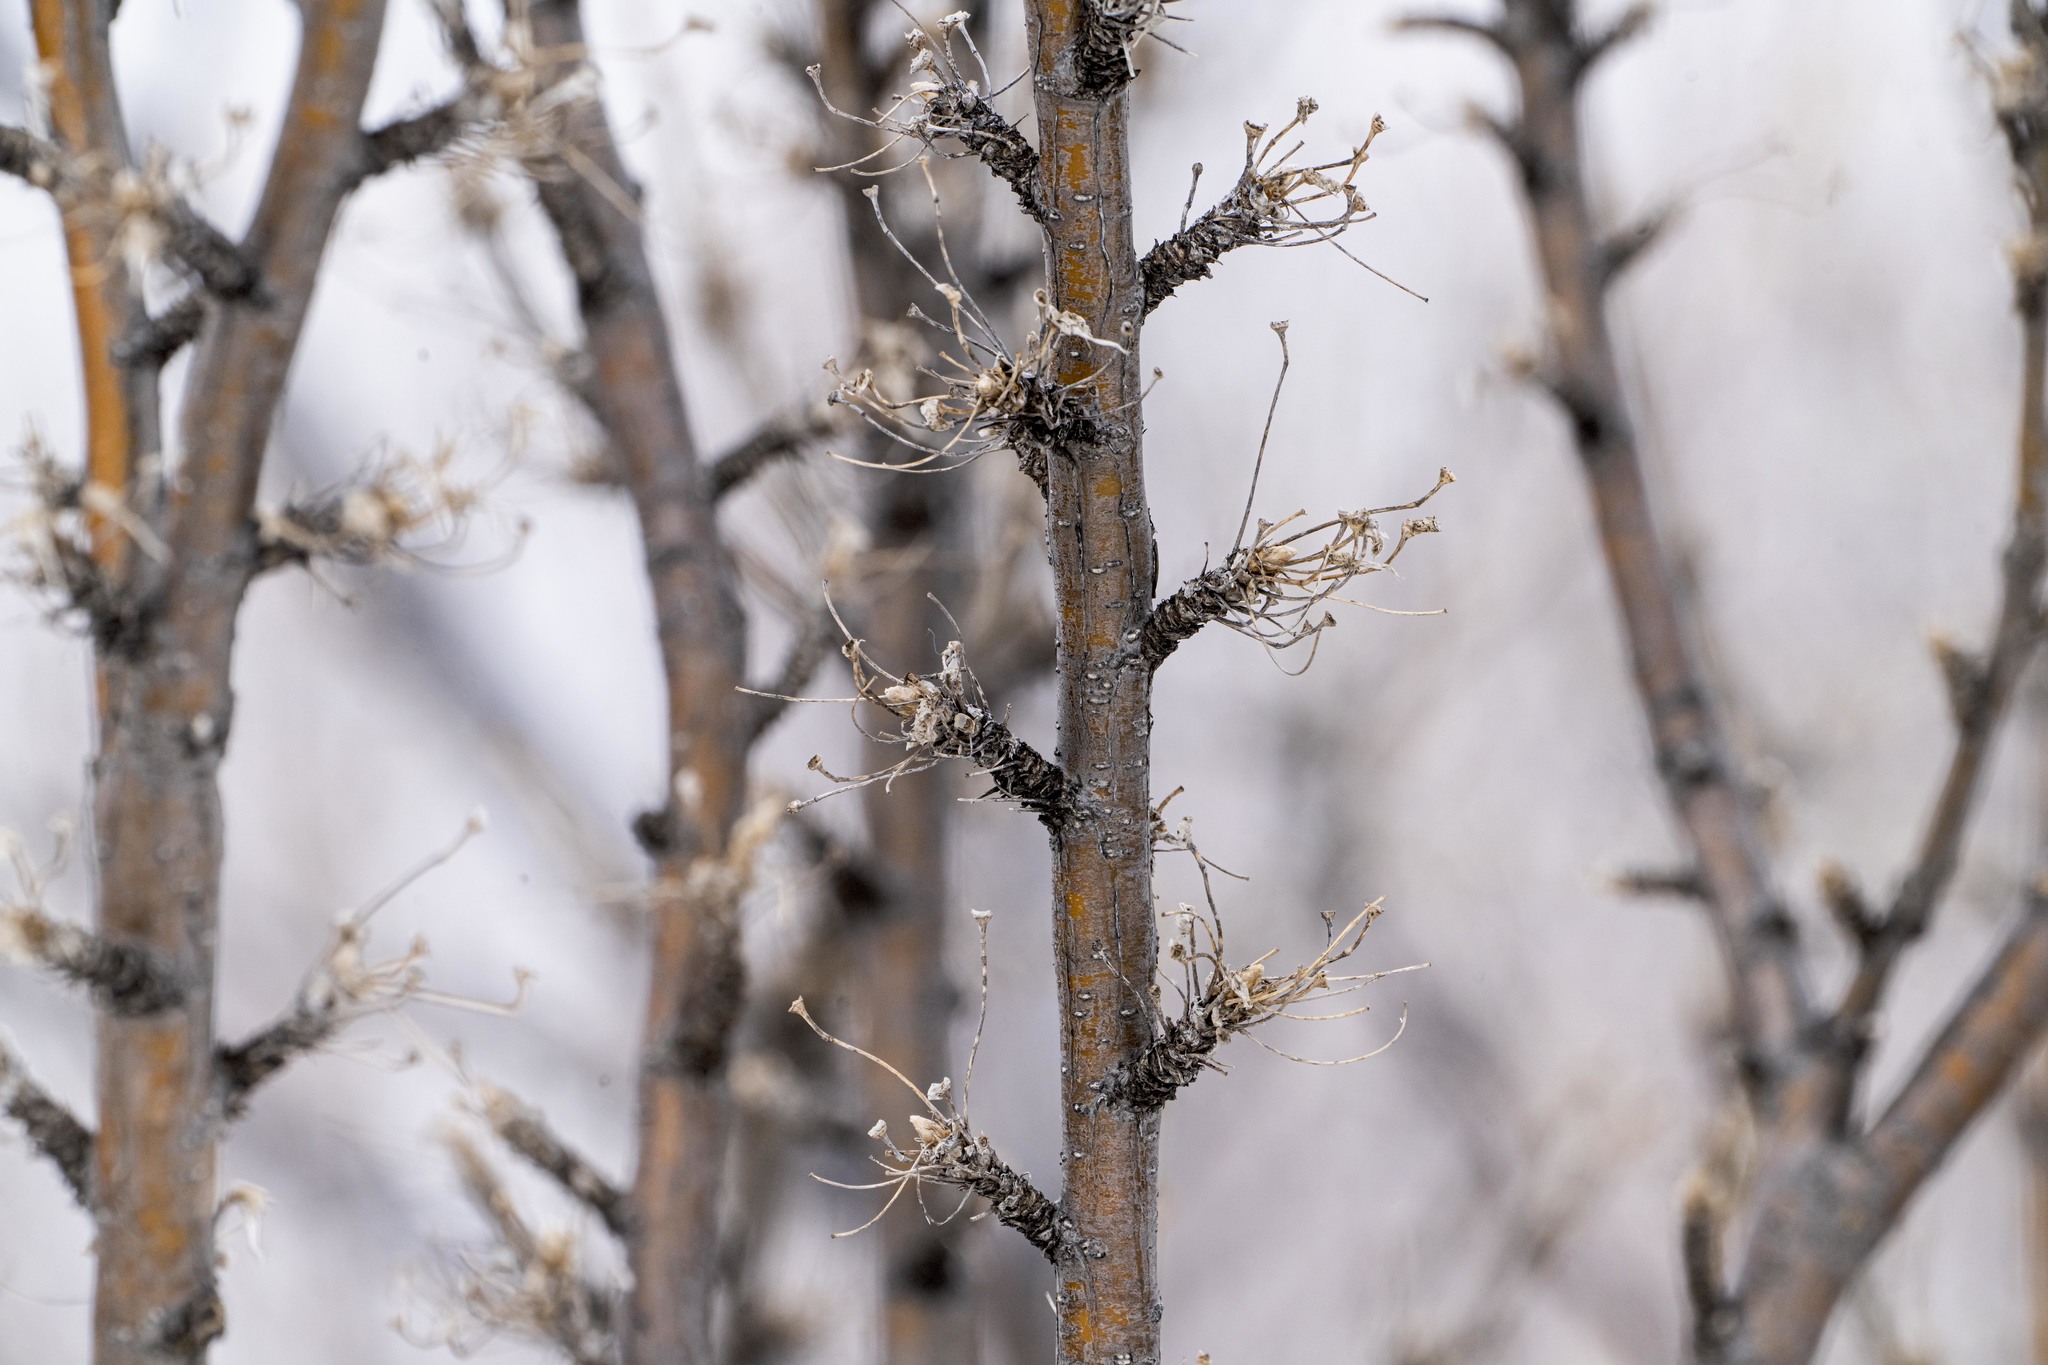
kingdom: Plantae
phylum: Tracheophyta
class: Magnoliopsida
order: Fabales
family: Fabaceae
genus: Caragana
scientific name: Caragana arborescens
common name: Siberian peashrub
